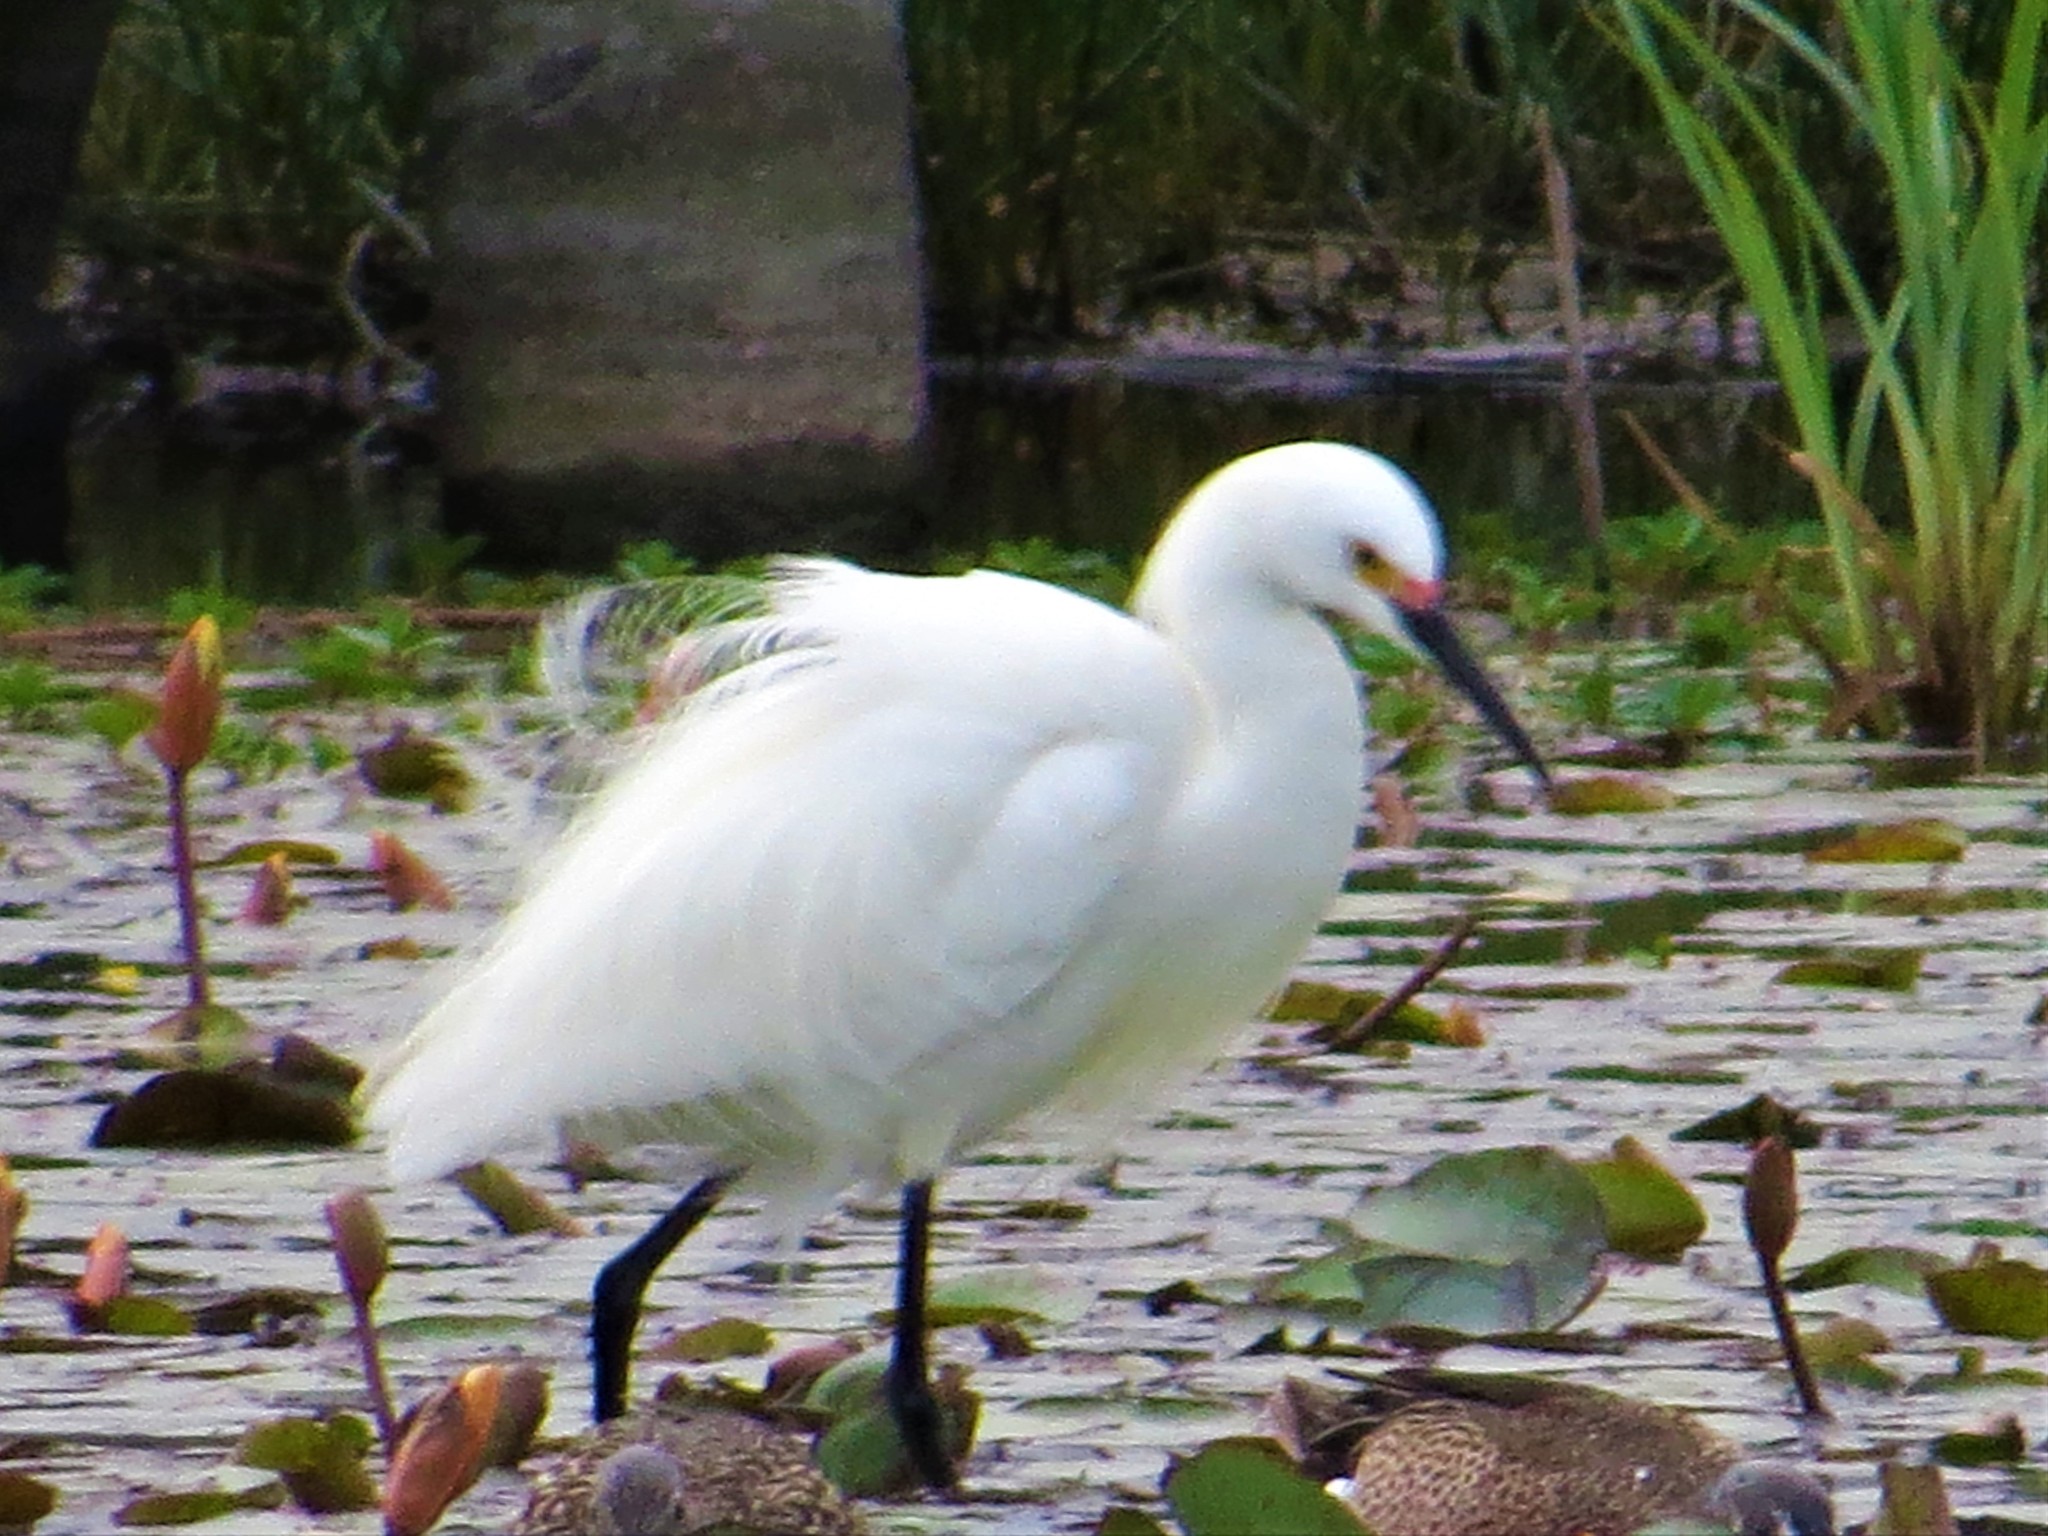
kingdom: Animalia
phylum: Chordata
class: Aves
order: Pelecaniformes
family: Ardeidae
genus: Egretta
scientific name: Egretta thula
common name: Snowy egret
